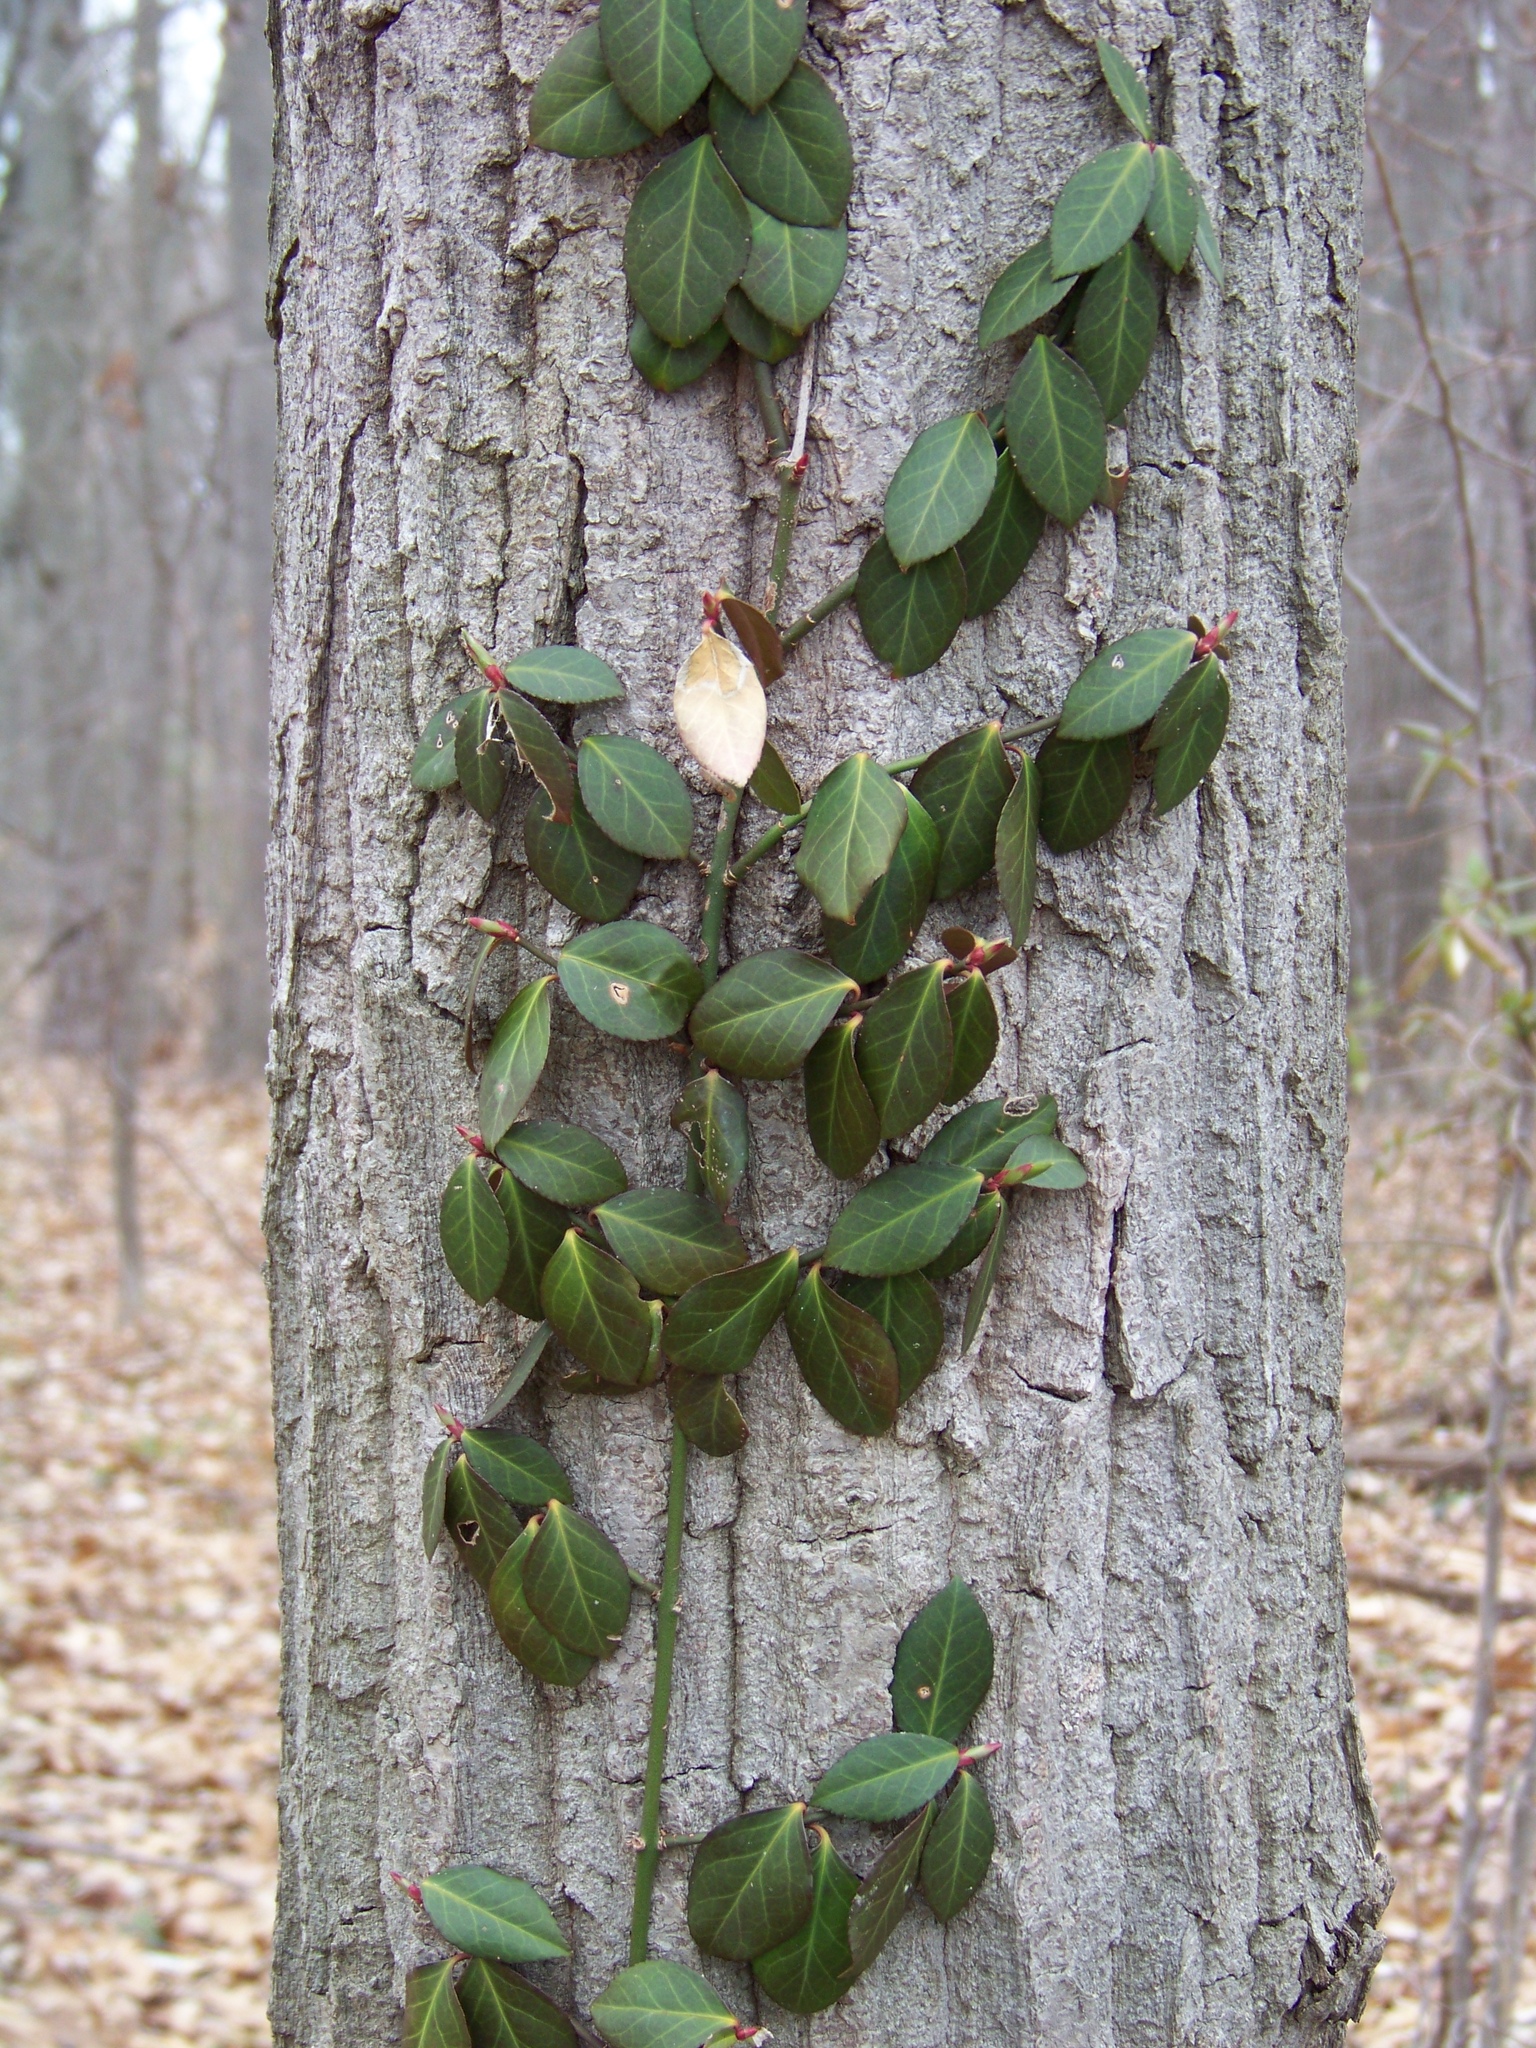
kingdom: Plantae
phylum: Tracheophyta
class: Magnoliopsida
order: Celastrales
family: Celastraceae
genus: Euonymus
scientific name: Euonymus fortunei
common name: Climbing euonymus
